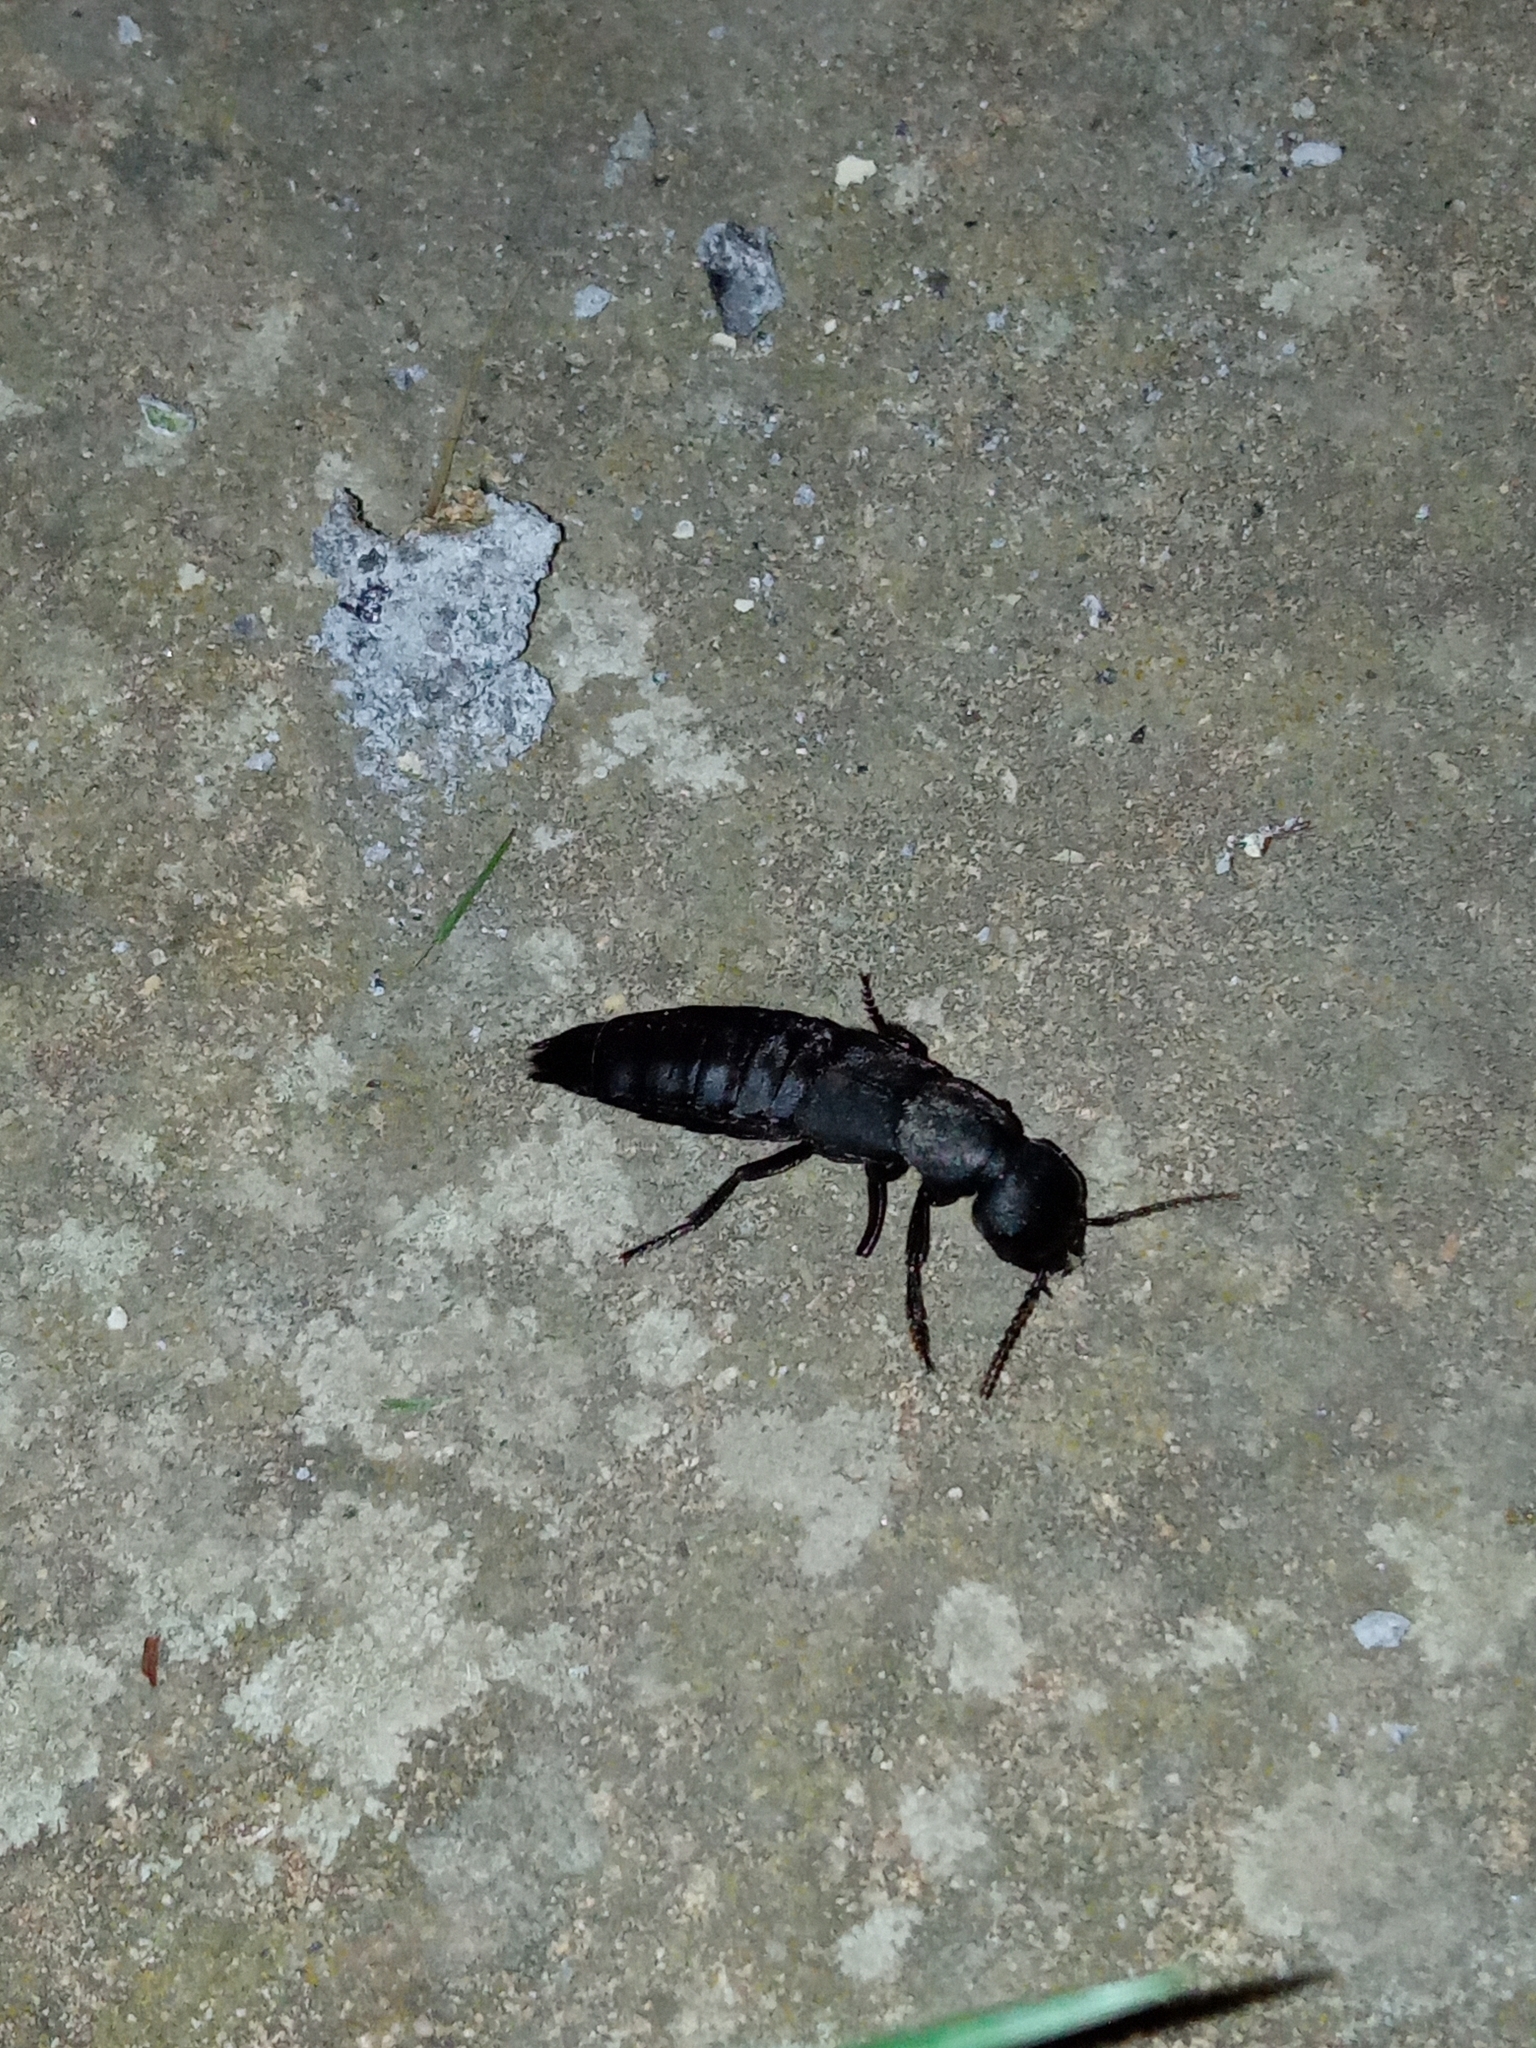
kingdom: Animalia
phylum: Arthropoda
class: Insecta
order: Coleoptera
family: Staphylinidae
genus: Ocypus
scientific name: Ocypus olens
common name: Devil's coach-horse
